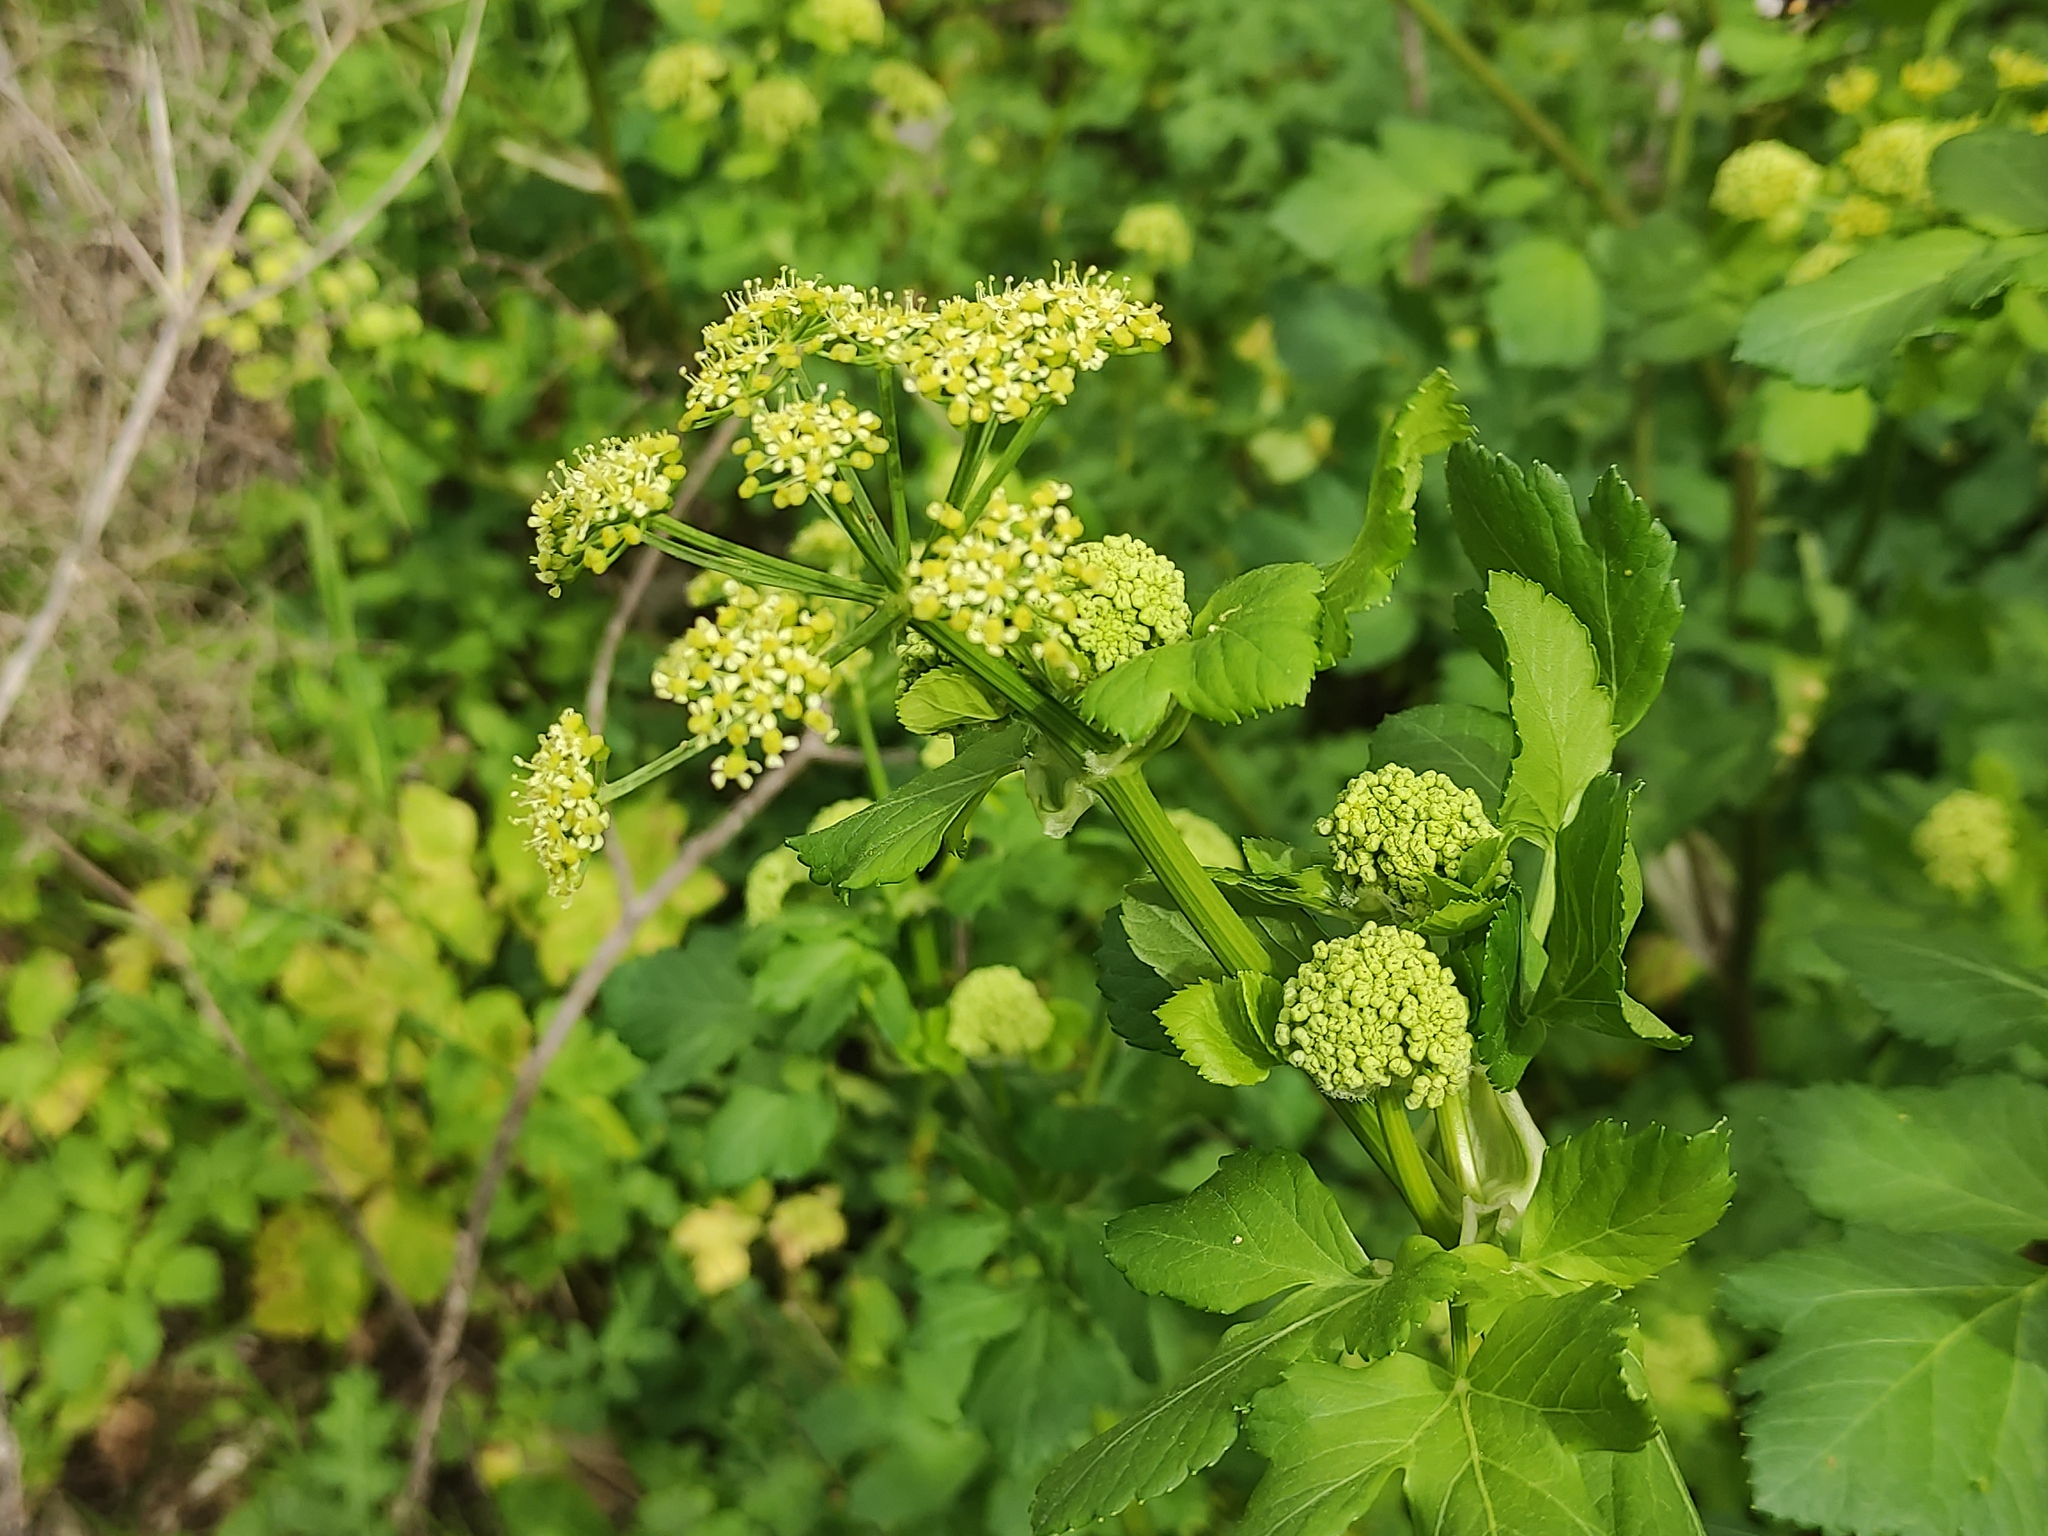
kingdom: Plantae
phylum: Tracheophyta
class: Magnoliopsida
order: Apiales
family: Apiaceae
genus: Smyrnium
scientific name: Smyrnium olusatrum
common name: Alexanders
